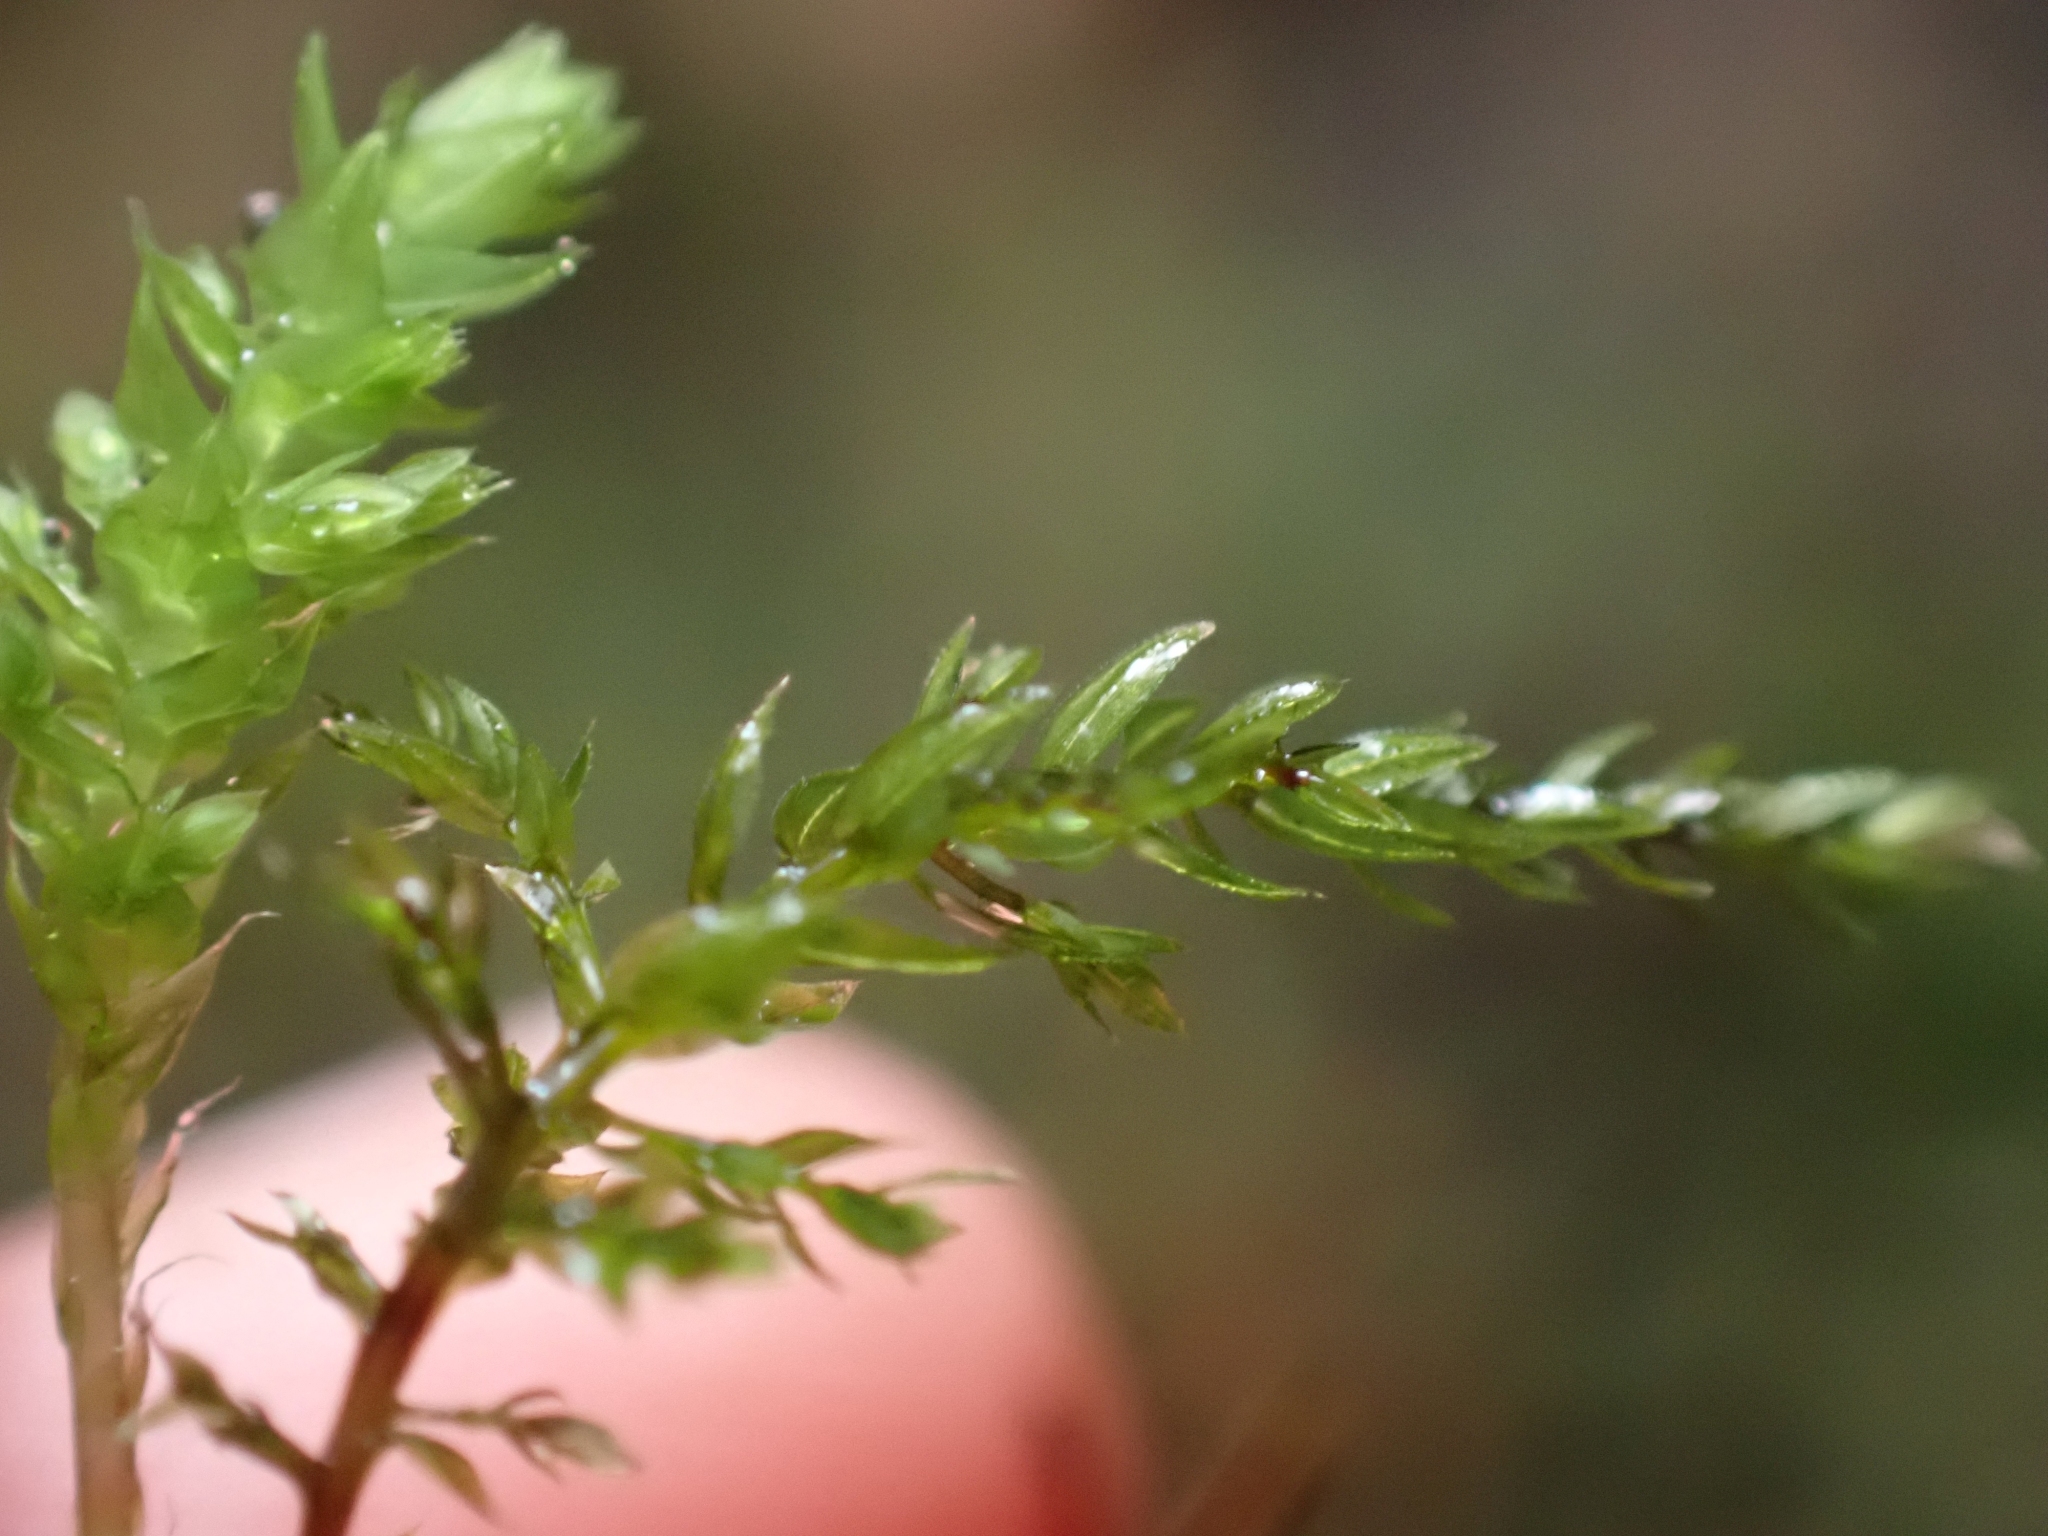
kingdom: Plantae
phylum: Bryophyta
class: Bryopsida
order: Bryales
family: Mniaceae
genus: Leucolepis
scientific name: Leucolepis acanthoneura
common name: Leucolepis umbrella moss
